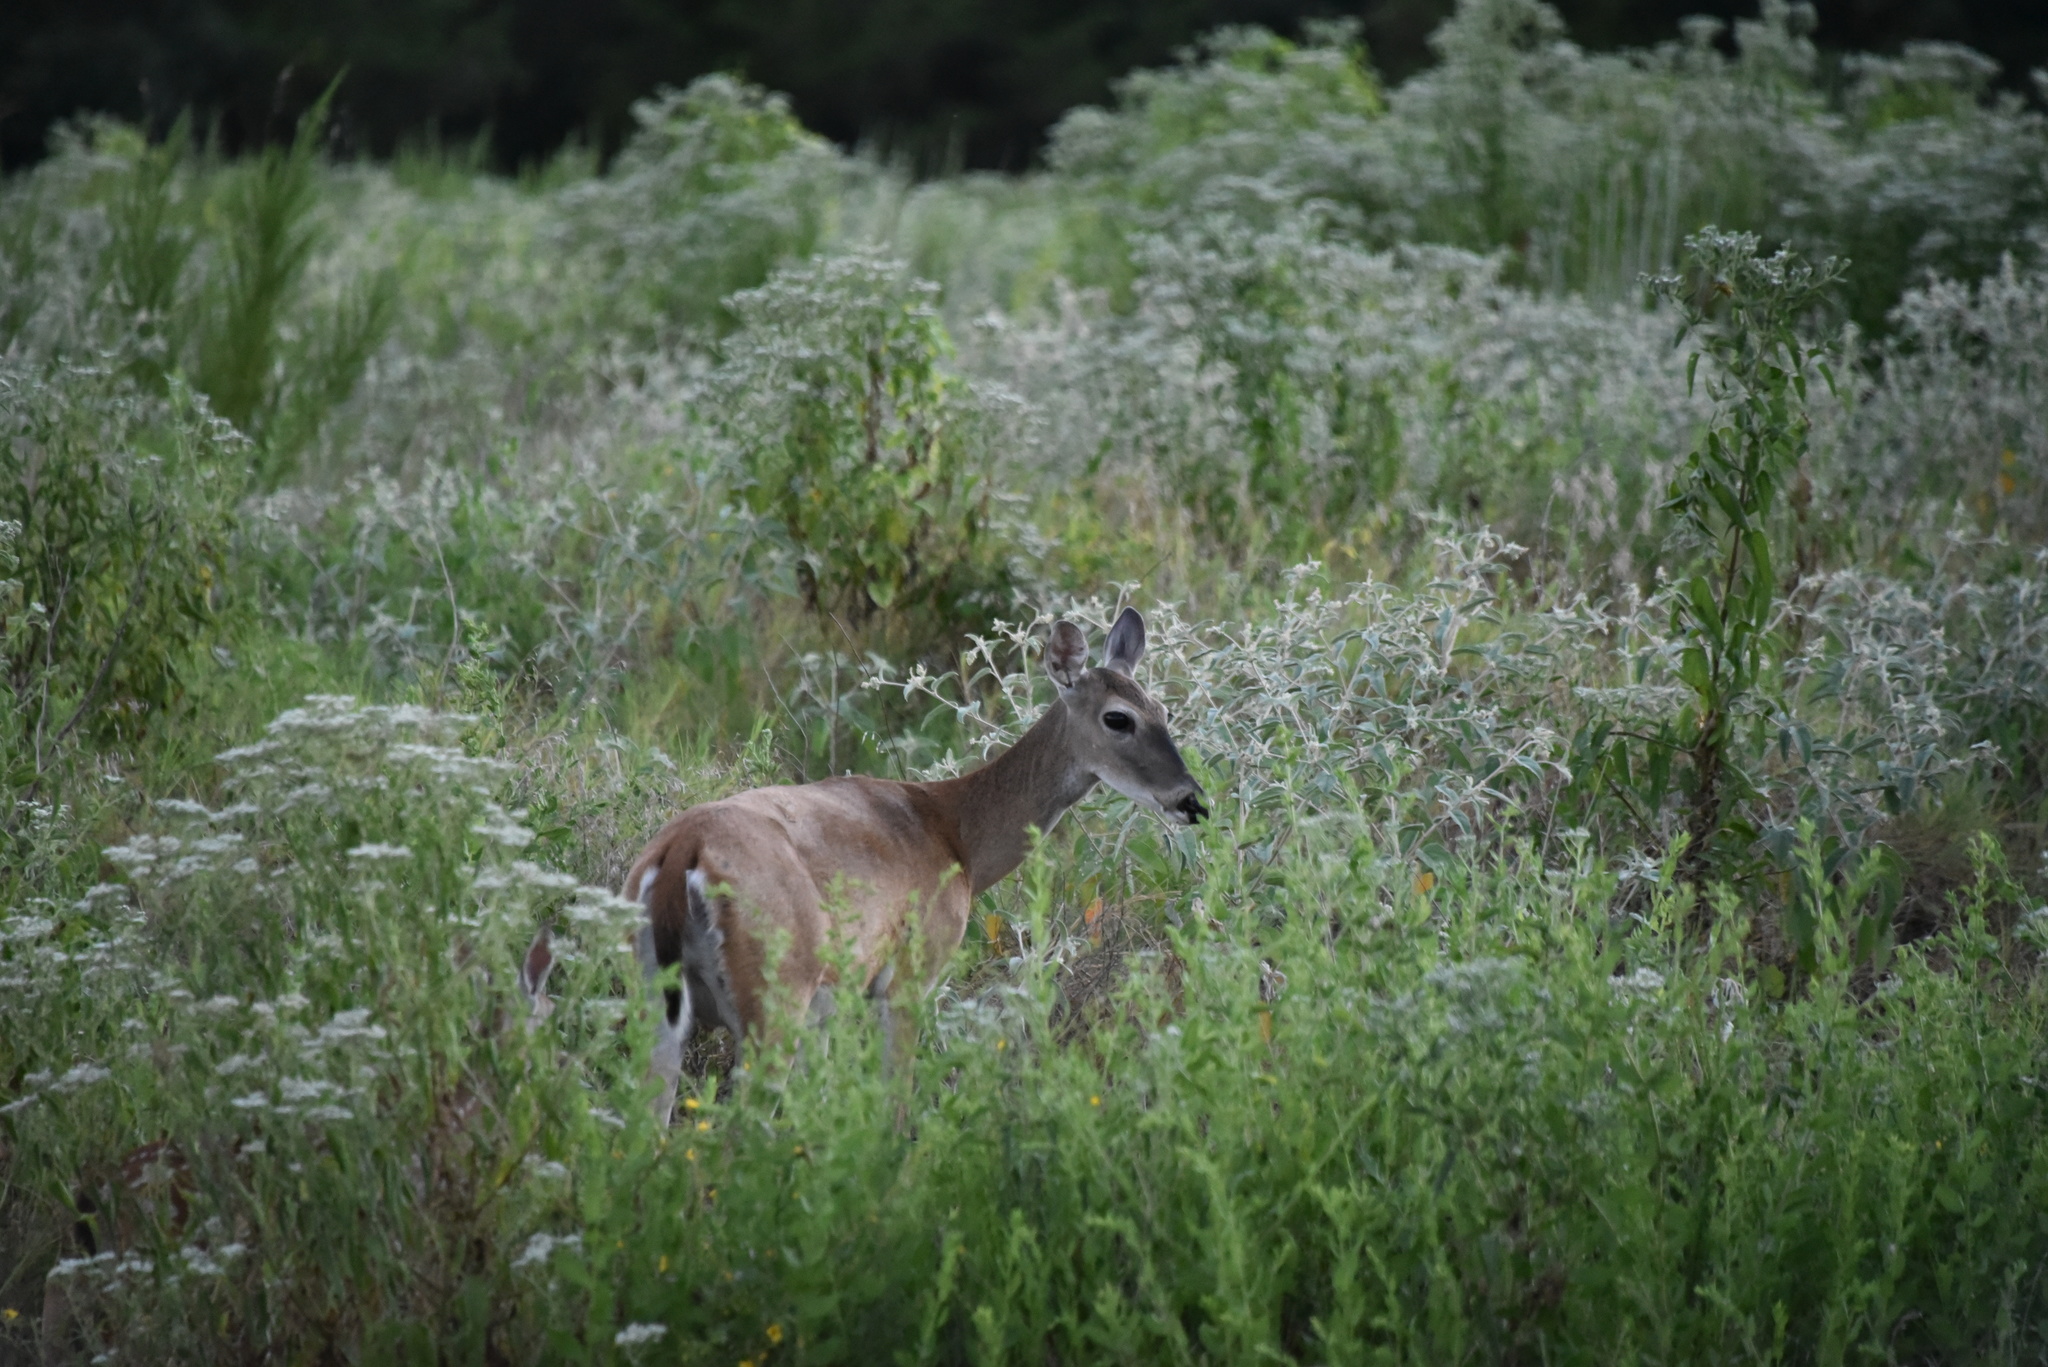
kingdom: Animalia
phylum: Chordata
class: Mammalia
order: Artiodactyla
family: Cervidae
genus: Odocoileus
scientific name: Odocoileus virginianus
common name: White-tailed deer
